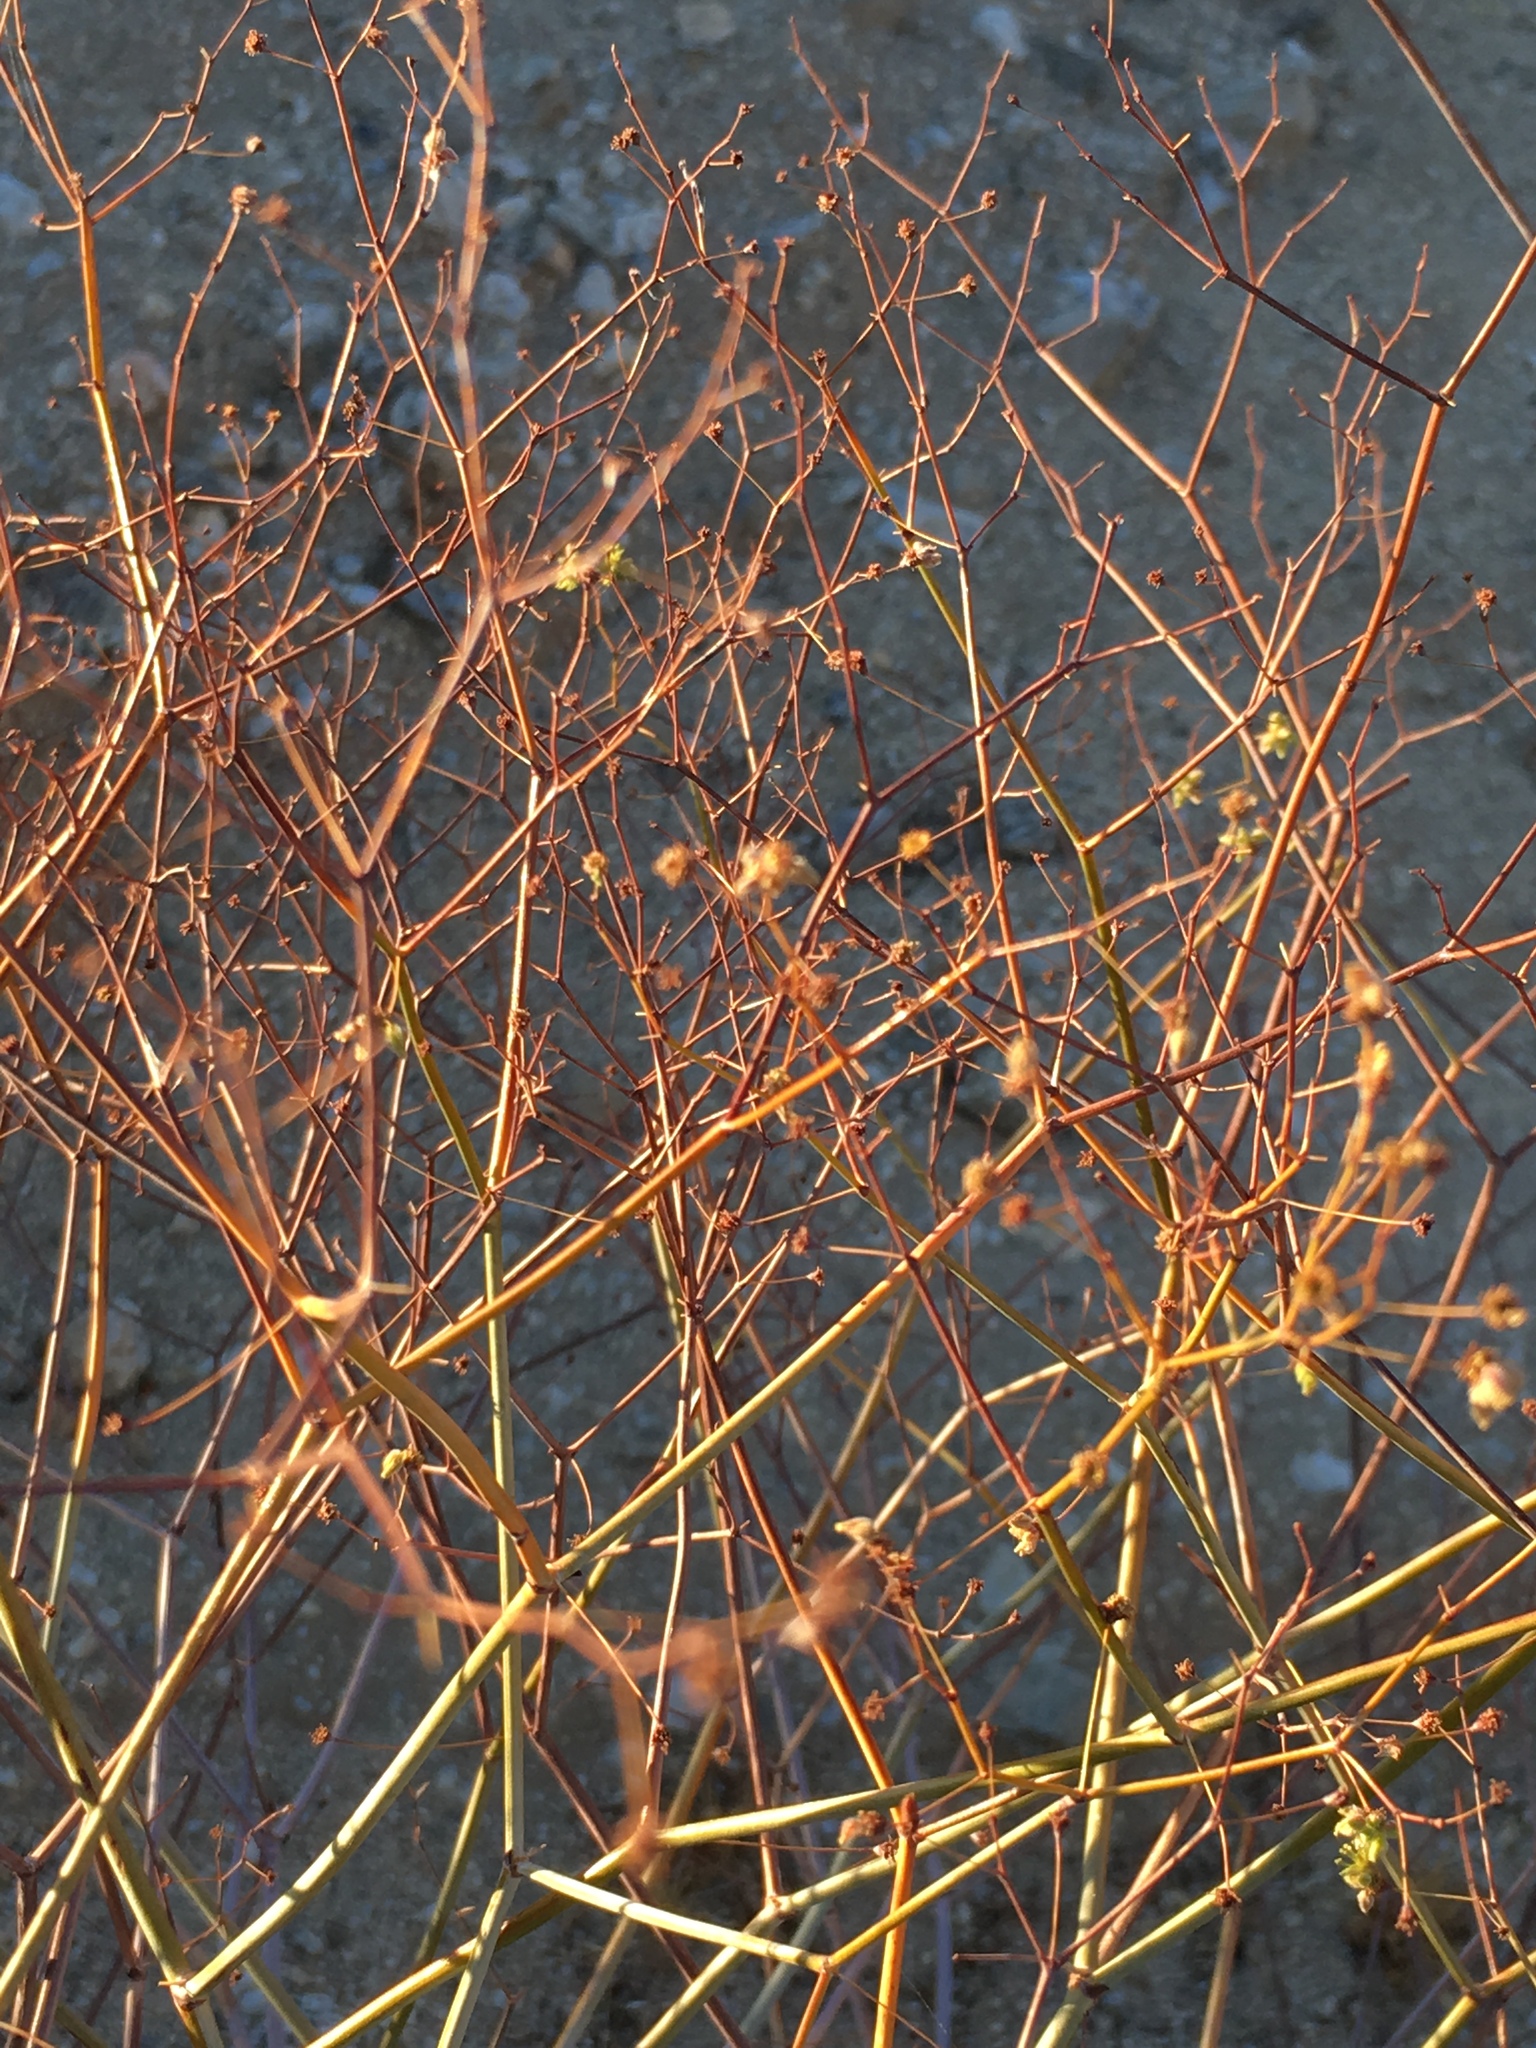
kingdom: Plantae
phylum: Tracheophyta
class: Magnoliopsida
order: Caryophyllales
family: Polygonaceae
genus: Eriogonum
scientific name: Eriogonum inflatum
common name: Desert trumpet
